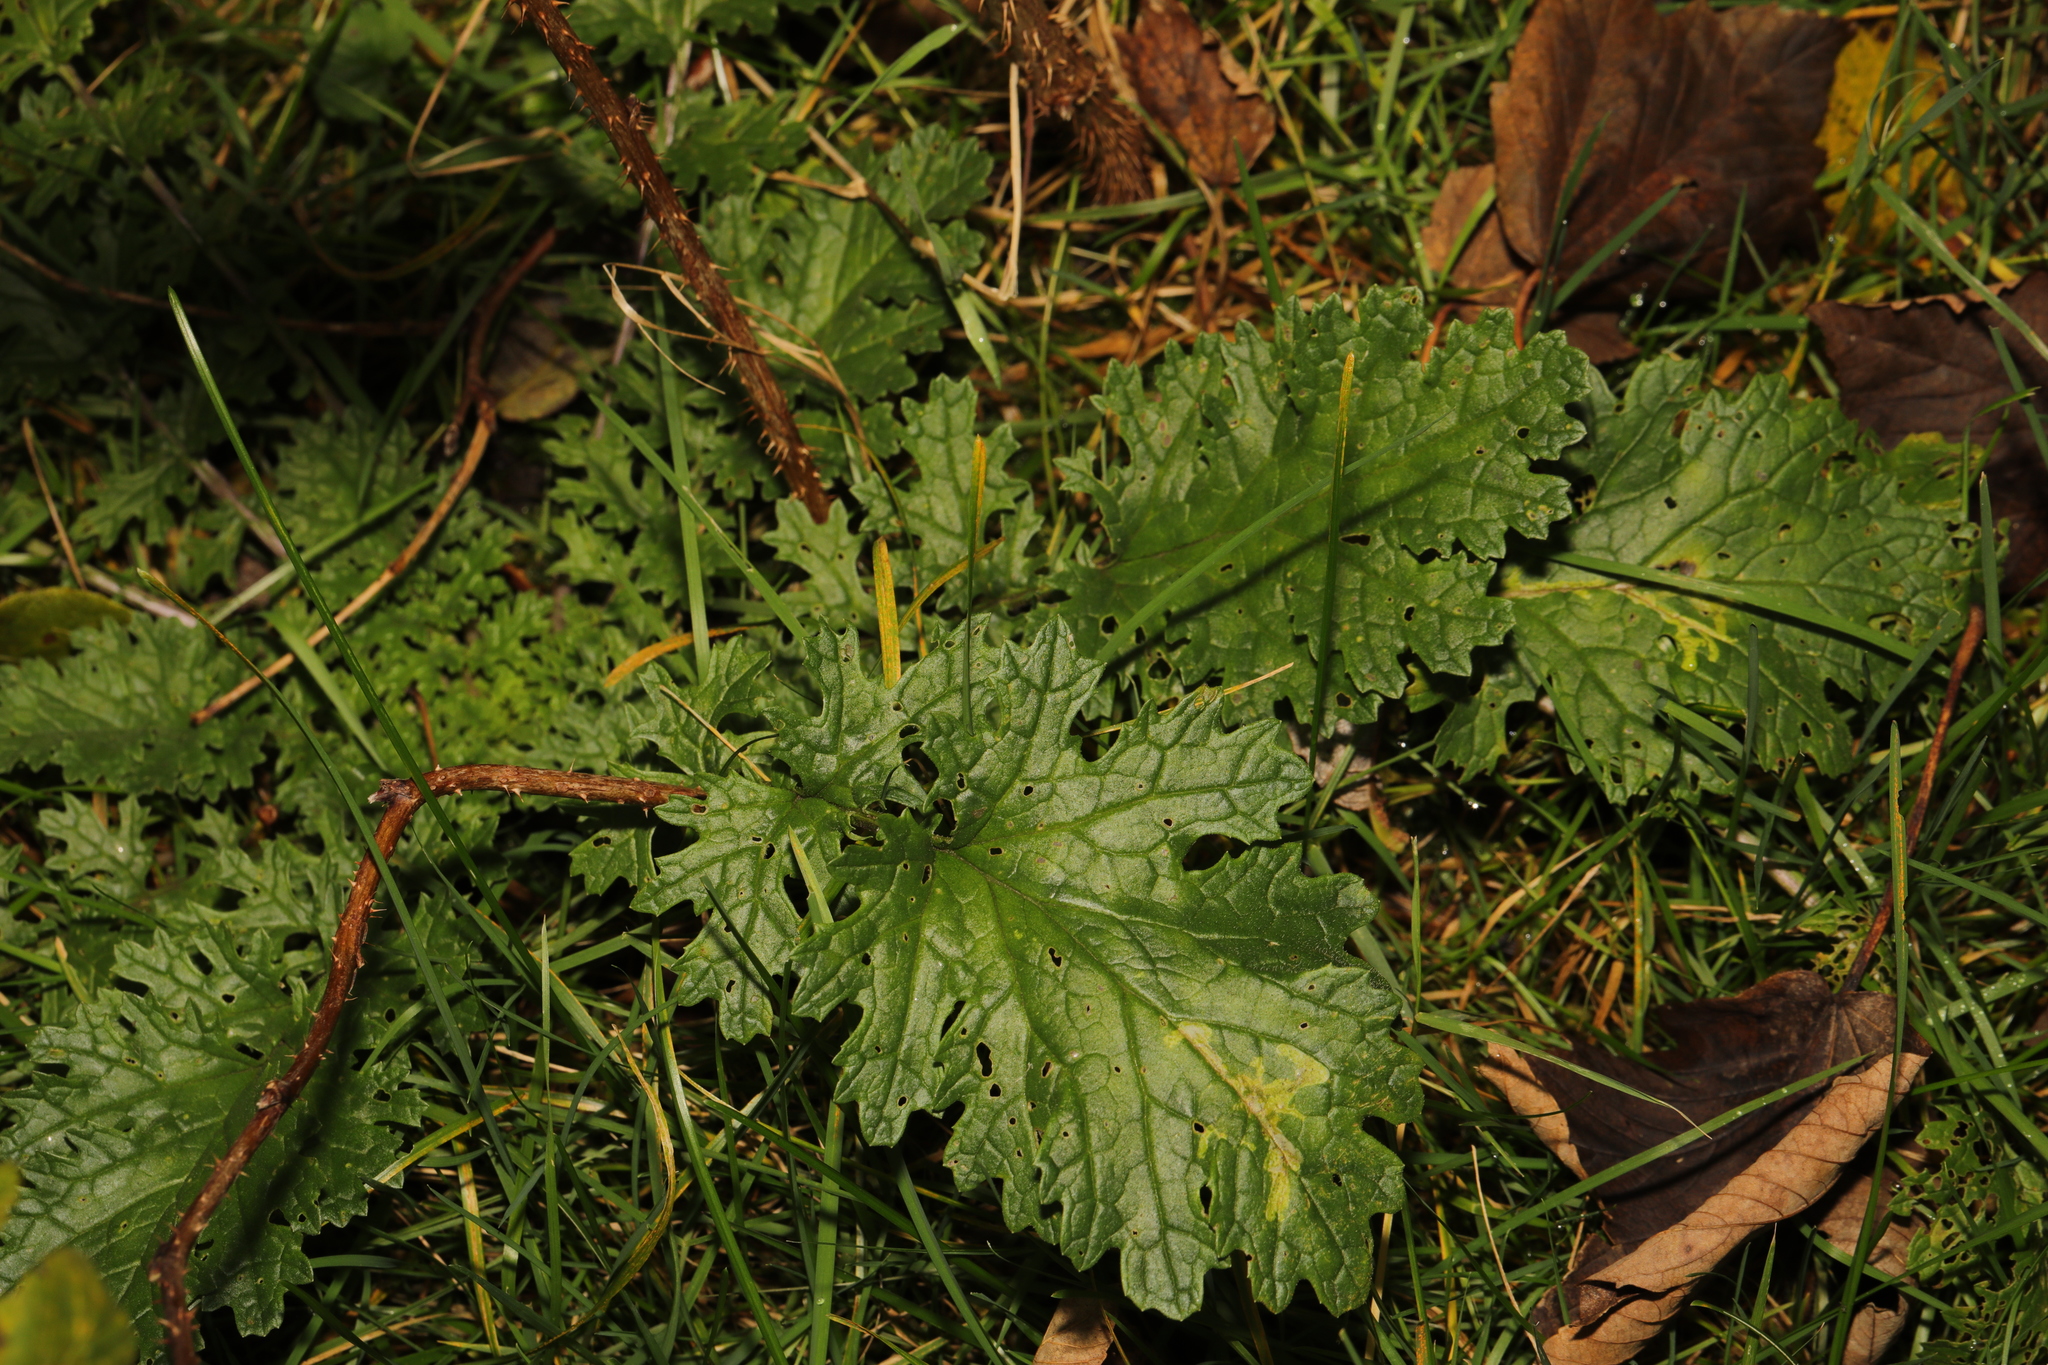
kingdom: Plantae
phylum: Tracheophyta
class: Magnoliopsida
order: Asterales
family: Asteraceae
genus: Jacobaea
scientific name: Jacobaea vulgaris
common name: Stinking willie
